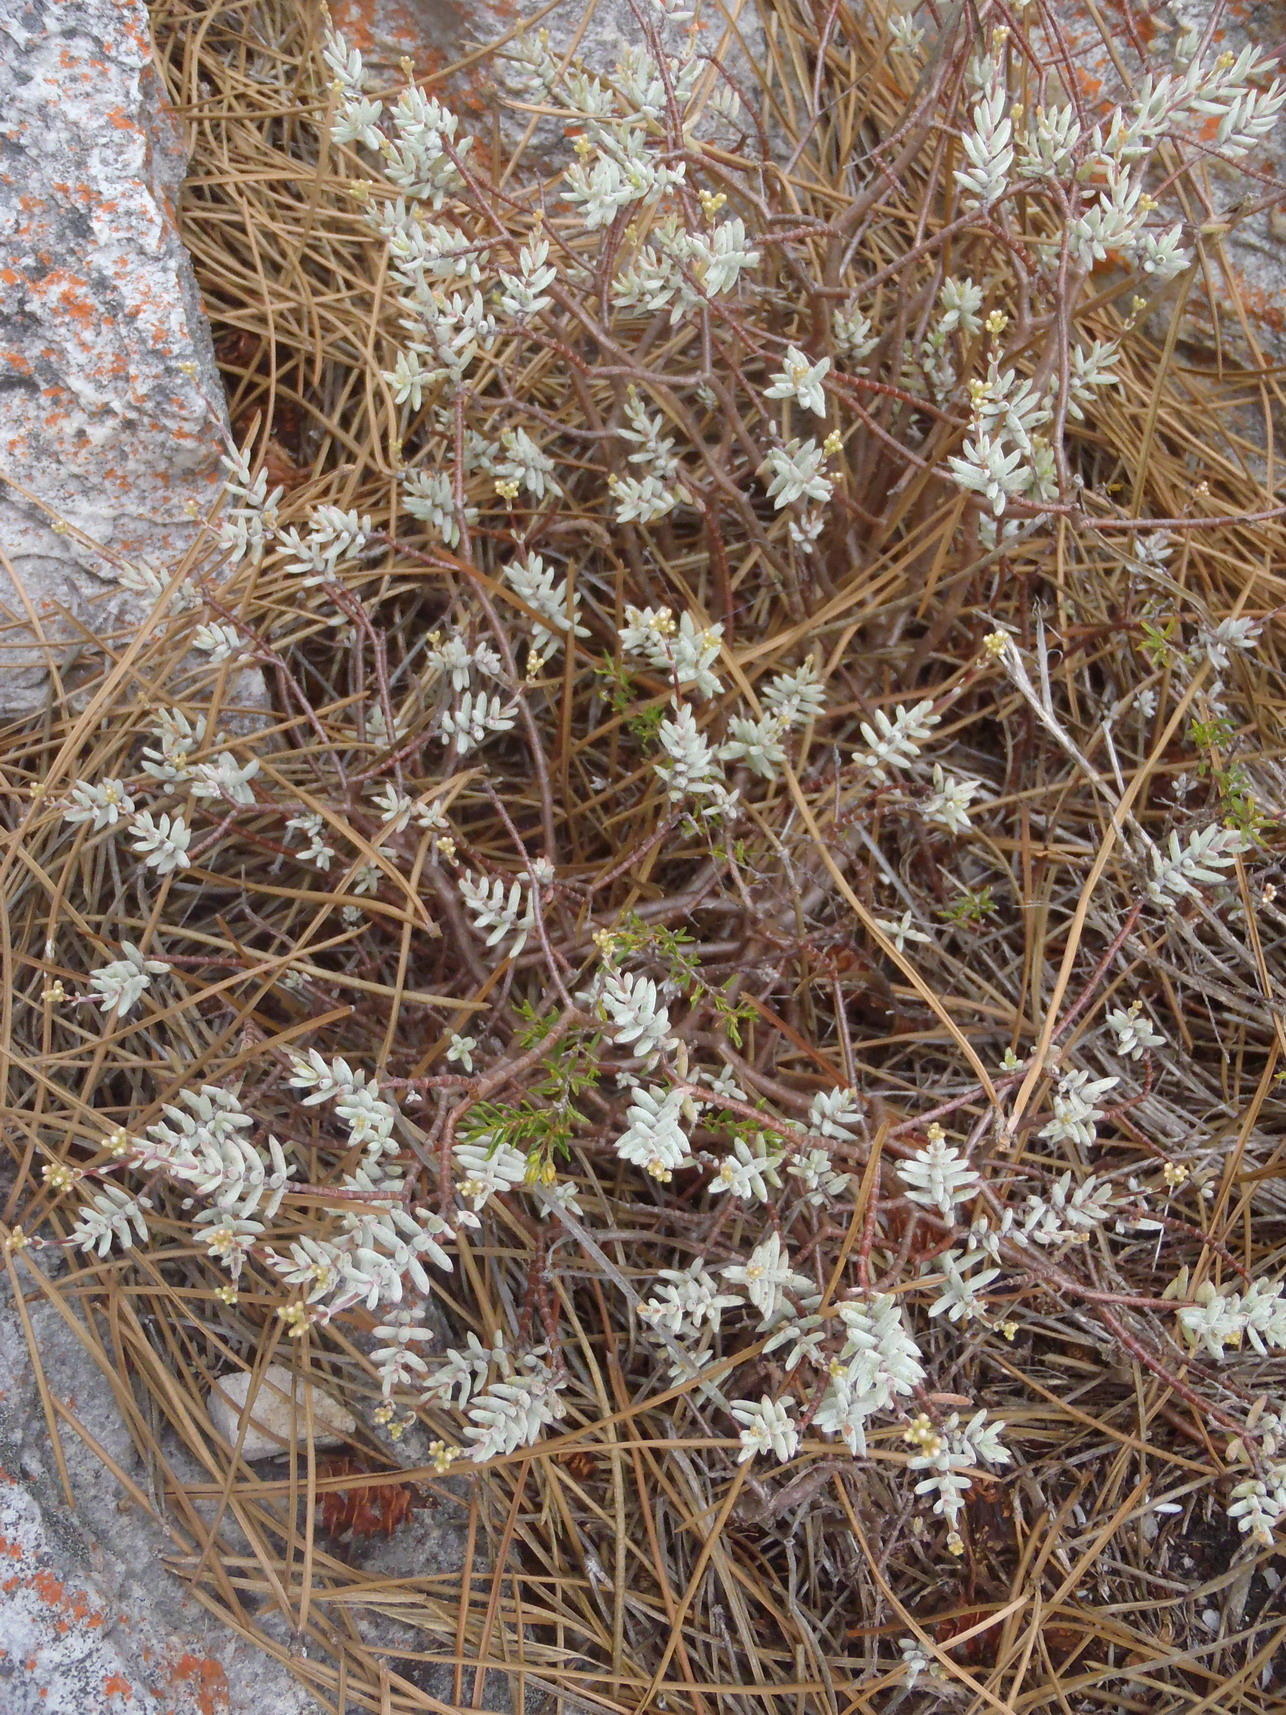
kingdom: Plantae
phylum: Tracheophyta
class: Magnoliopsida
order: Saxifragales
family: Crassulaceae
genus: Crassula
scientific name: Crassula biplanata
